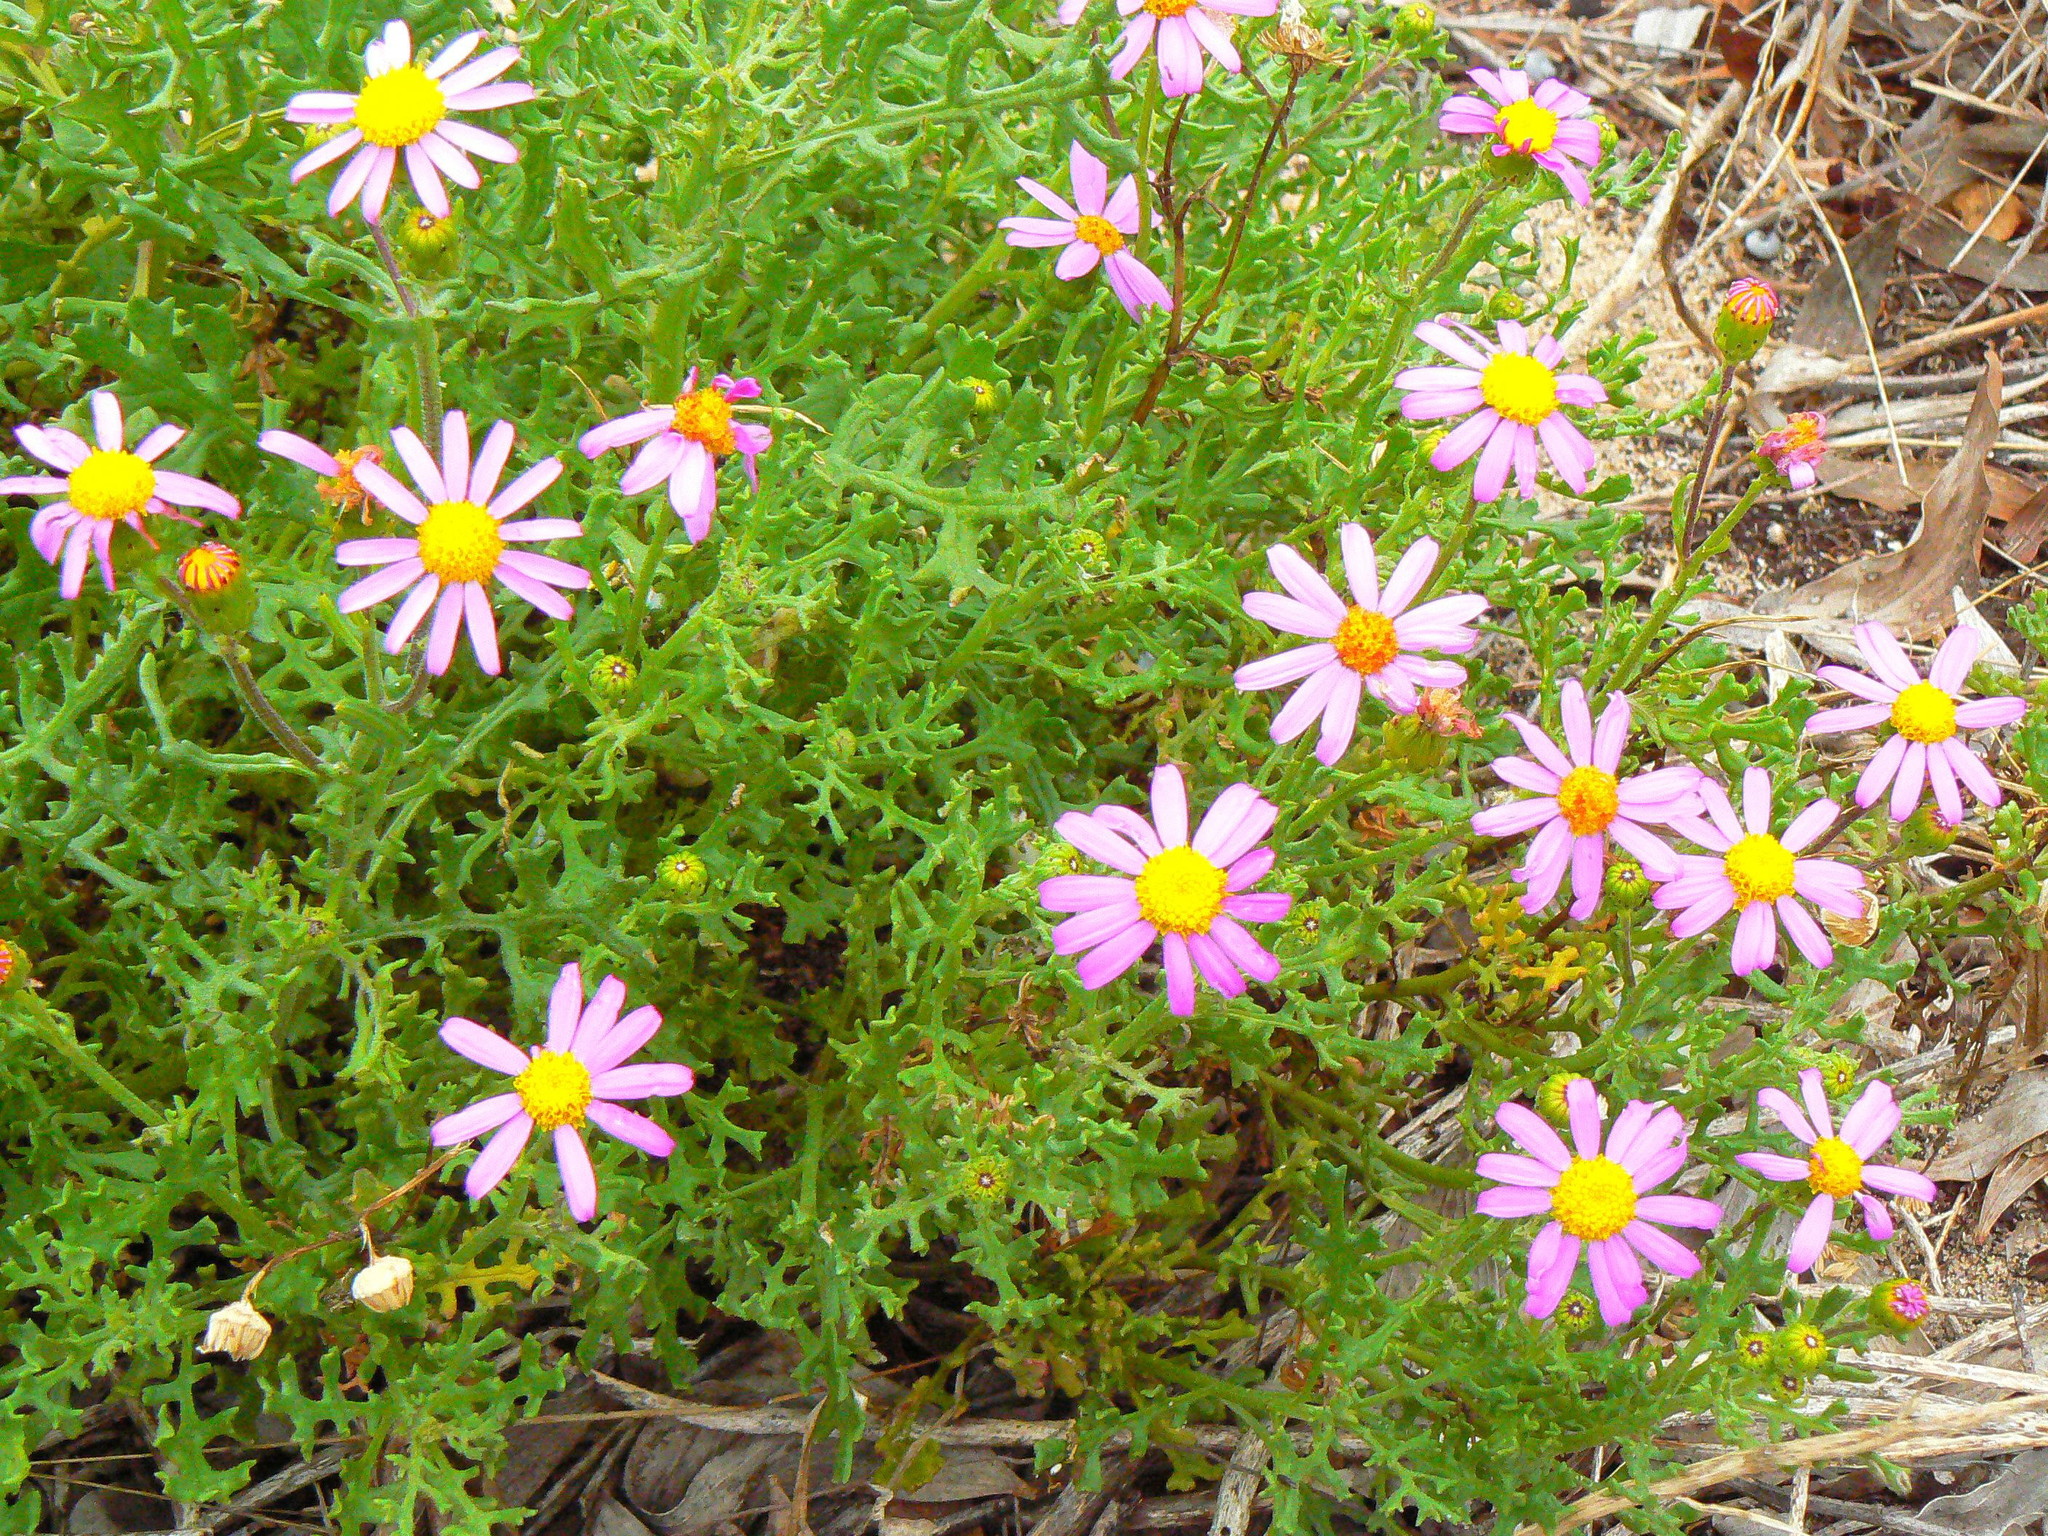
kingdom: Plantae
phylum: Tracheophyta
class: Magnoliopsida
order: Asterales
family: Asteraceae
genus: Senecio
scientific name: Senecio elegans
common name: Purple groundsel
